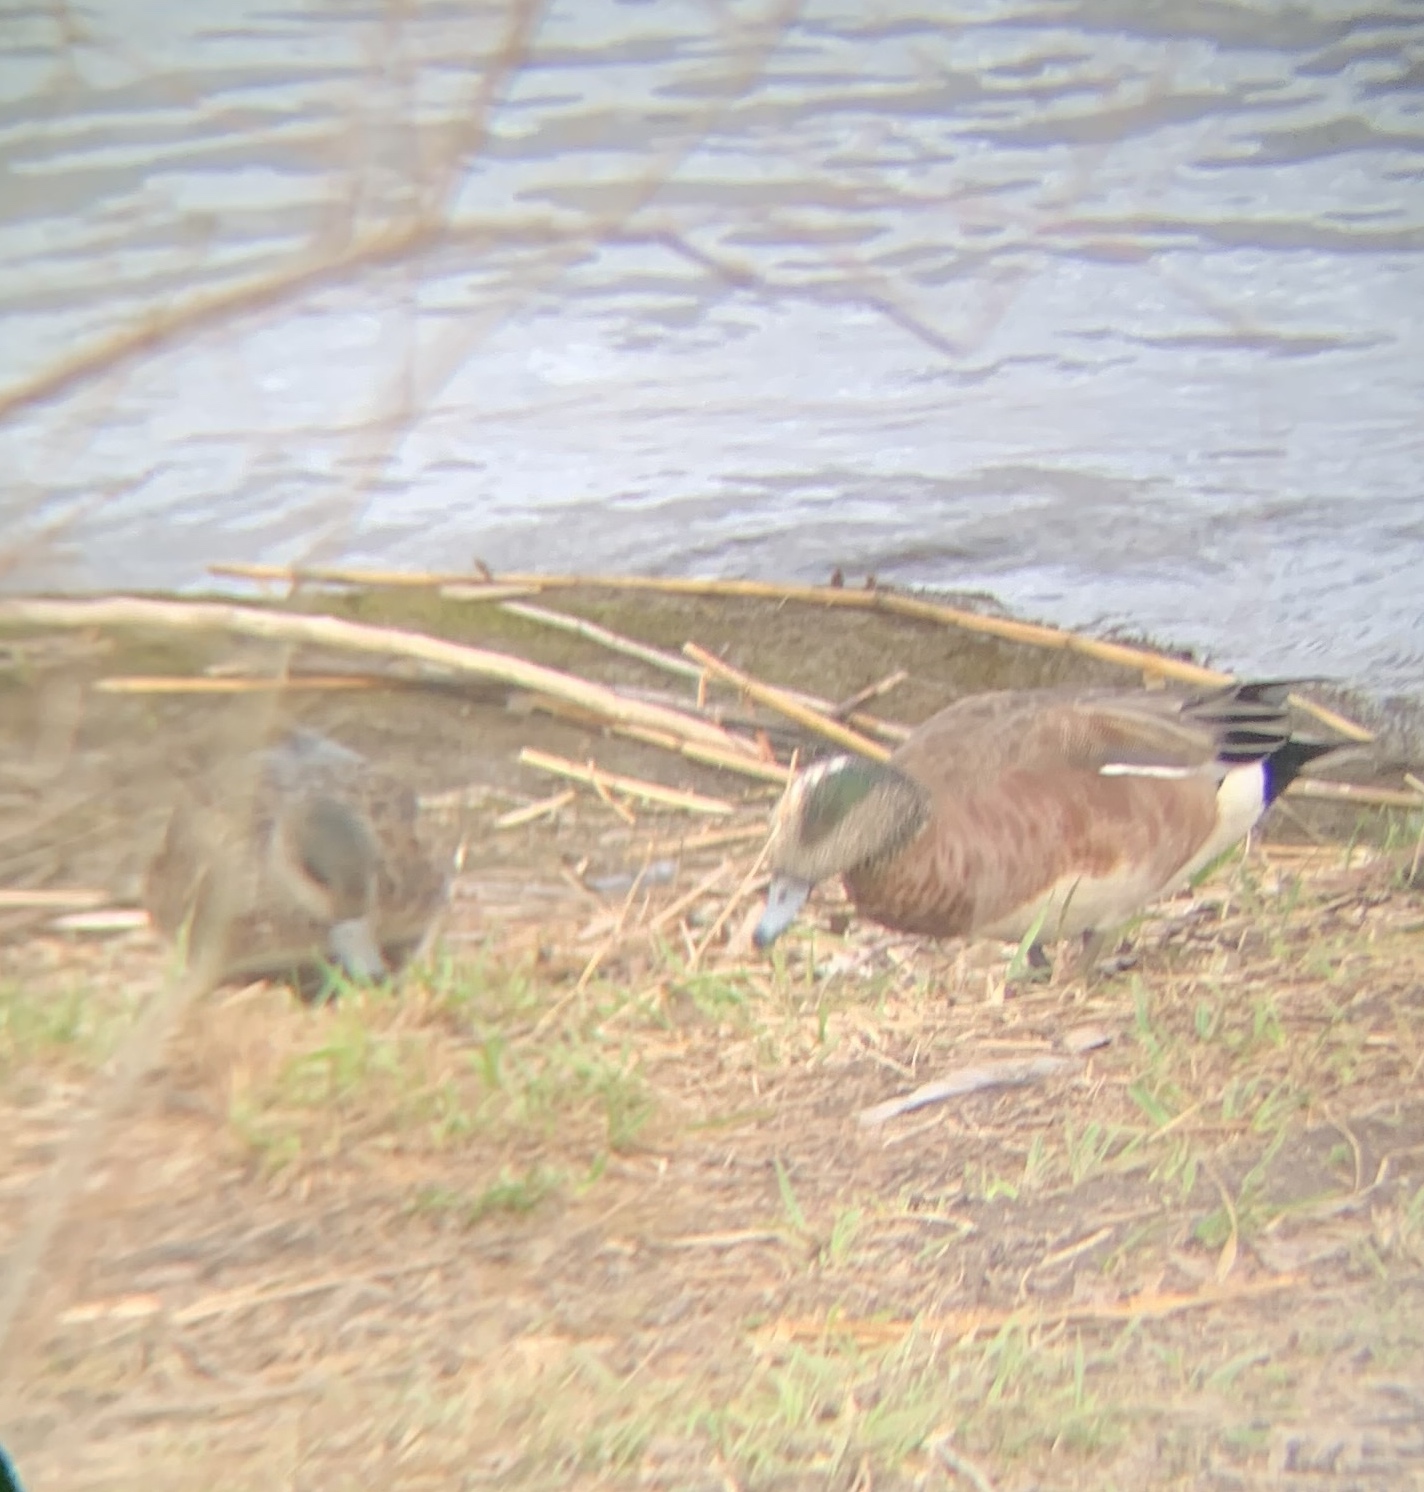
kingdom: Animalia
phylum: Chordata
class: Aves
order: Anseriformes
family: Anatidae
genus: Mareca
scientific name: Mareca americana
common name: American wigeon
